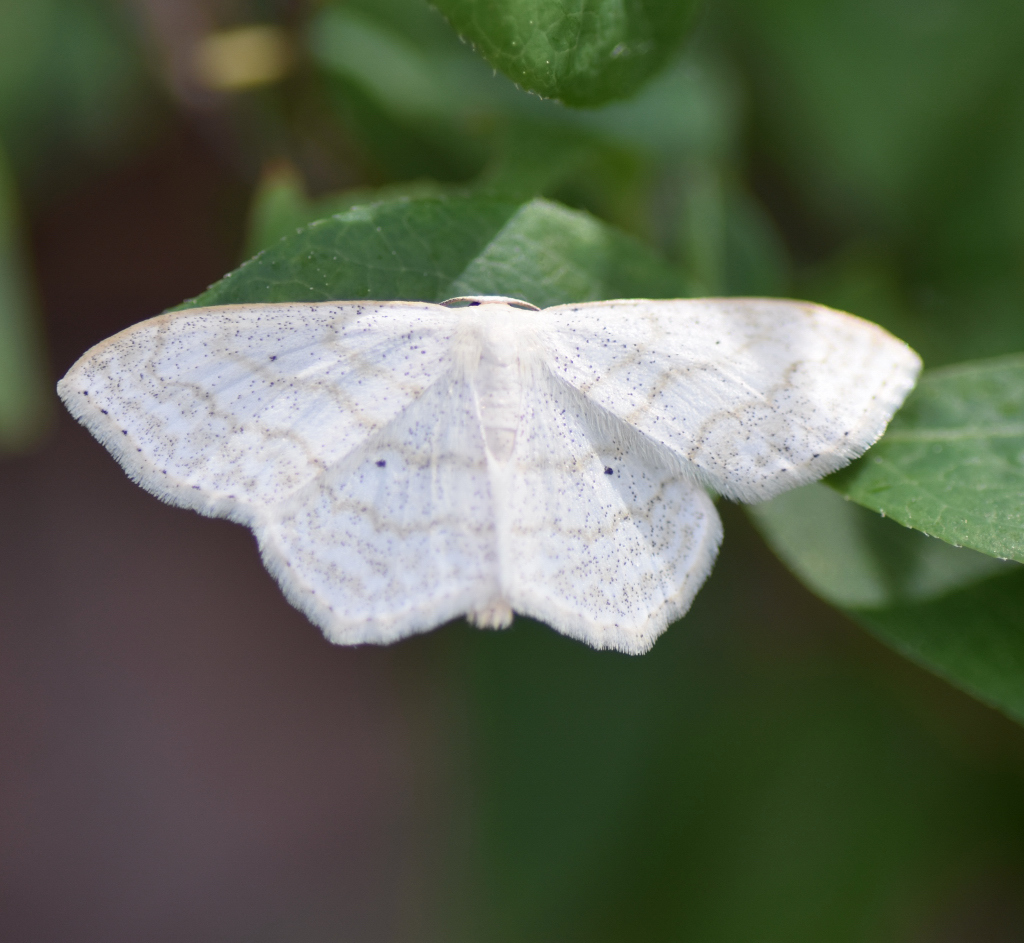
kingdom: Animalia
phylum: Arthropoda
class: Insecta
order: Lepidoptera
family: Geometridae
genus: Scopula
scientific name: Scopula limboundata
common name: Large lace border
